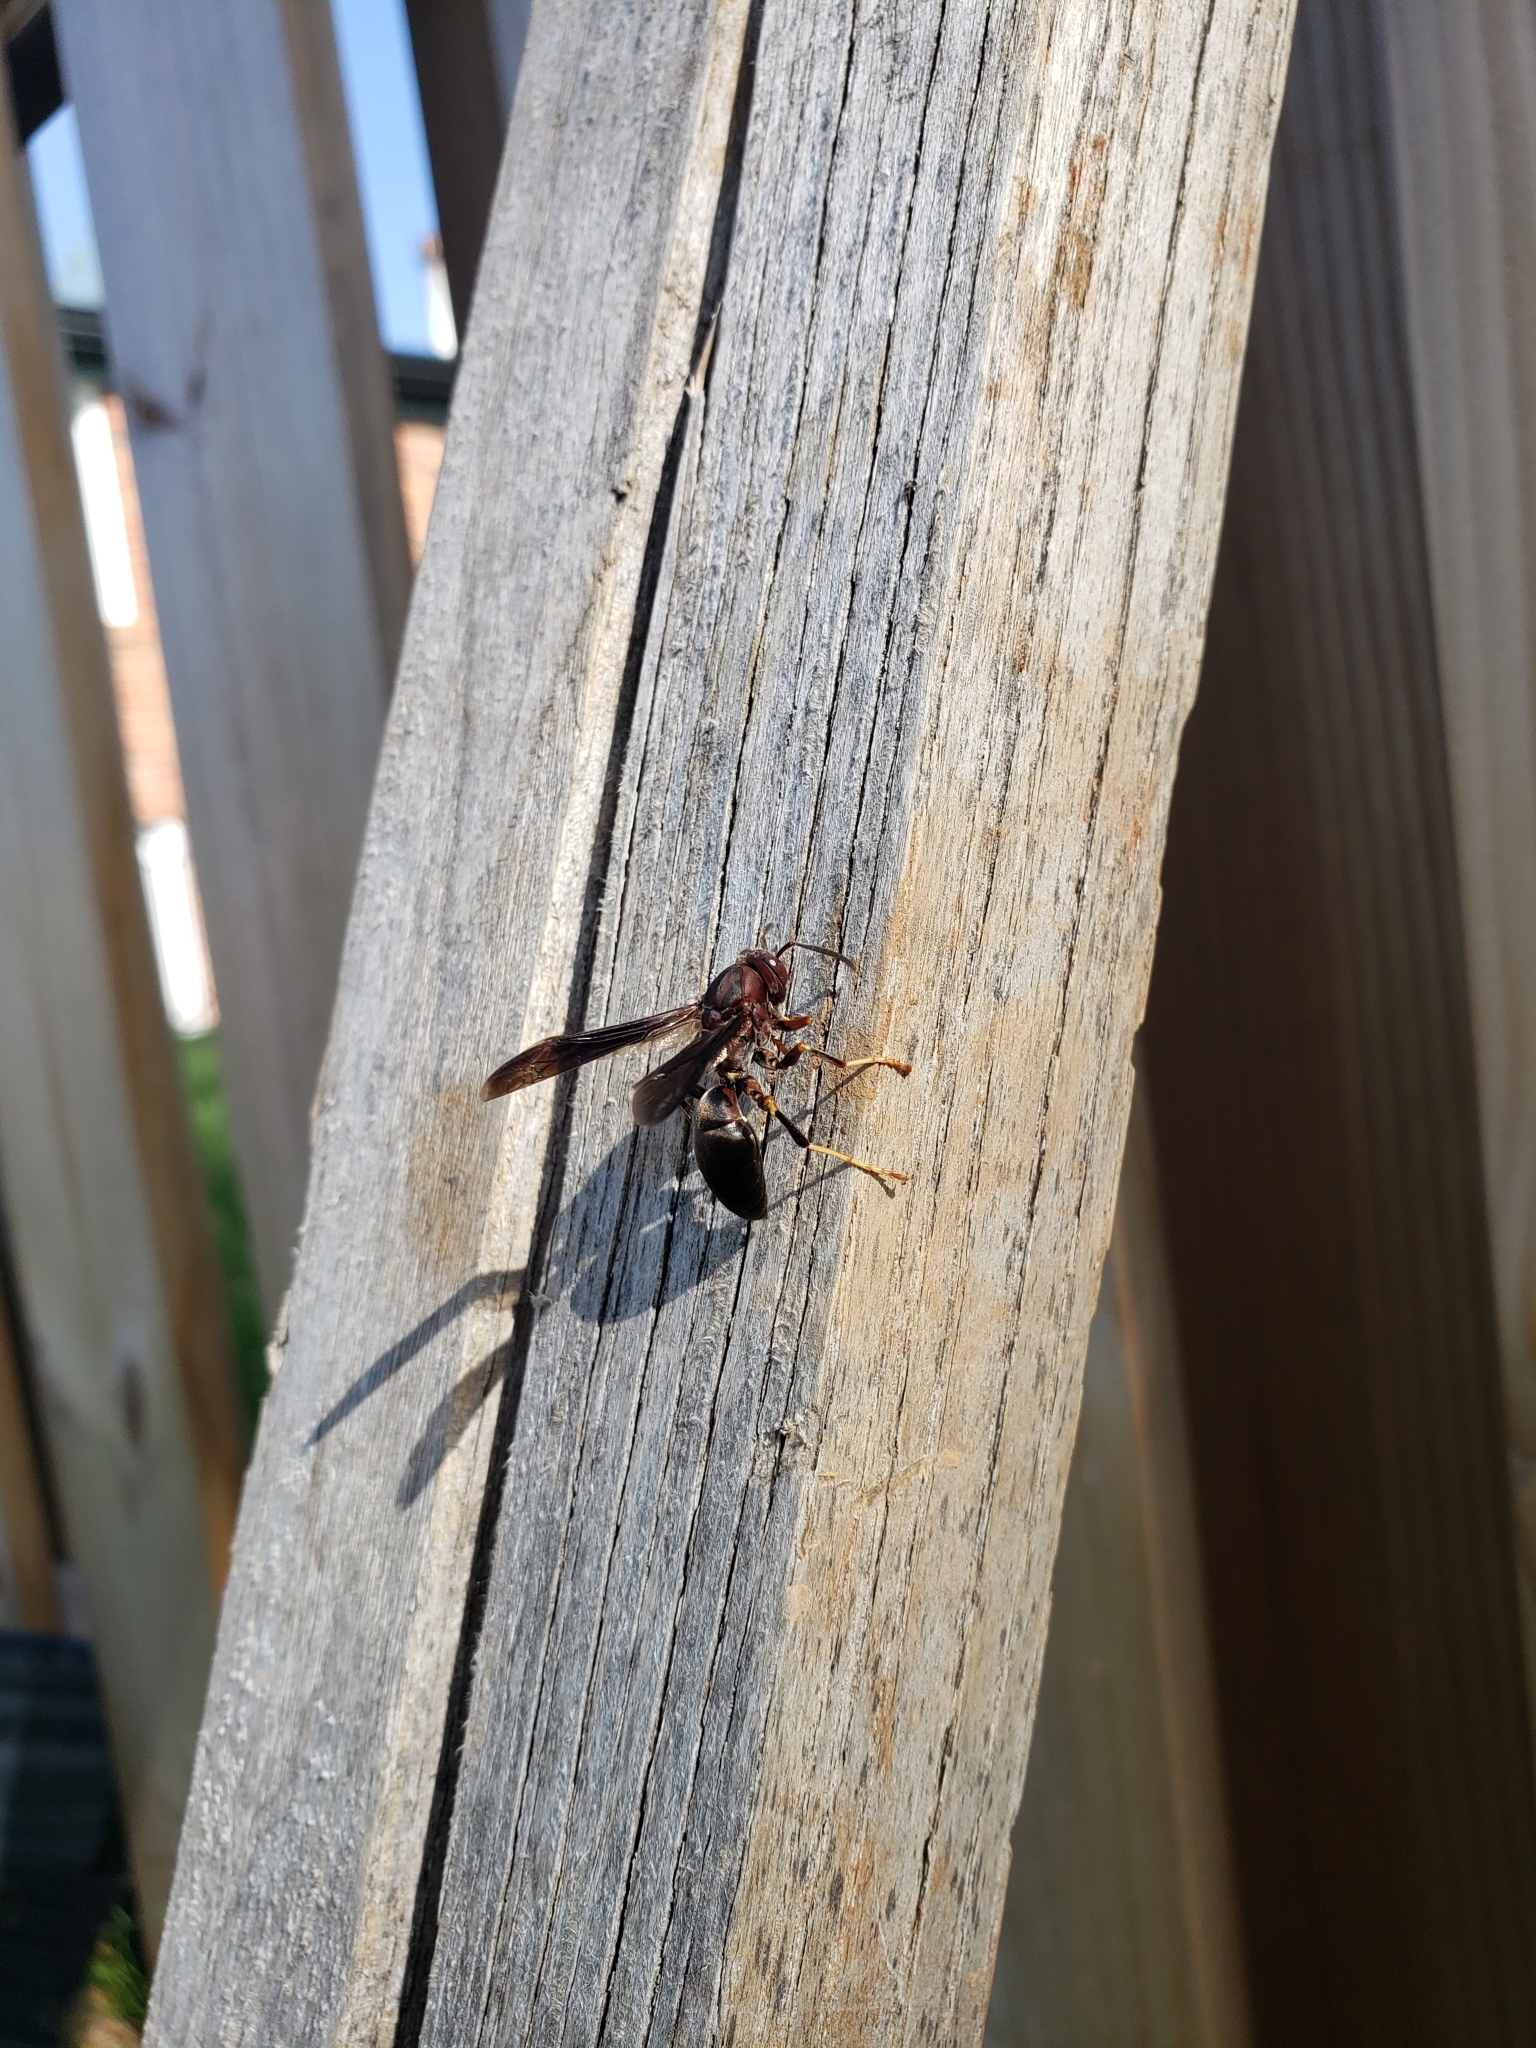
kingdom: Animalia
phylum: Arthropoda
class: Insecta
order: Hymenoptera
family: Eumenidae
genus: Polistes
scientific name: Polistes metricus
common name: Metric paper wasp
